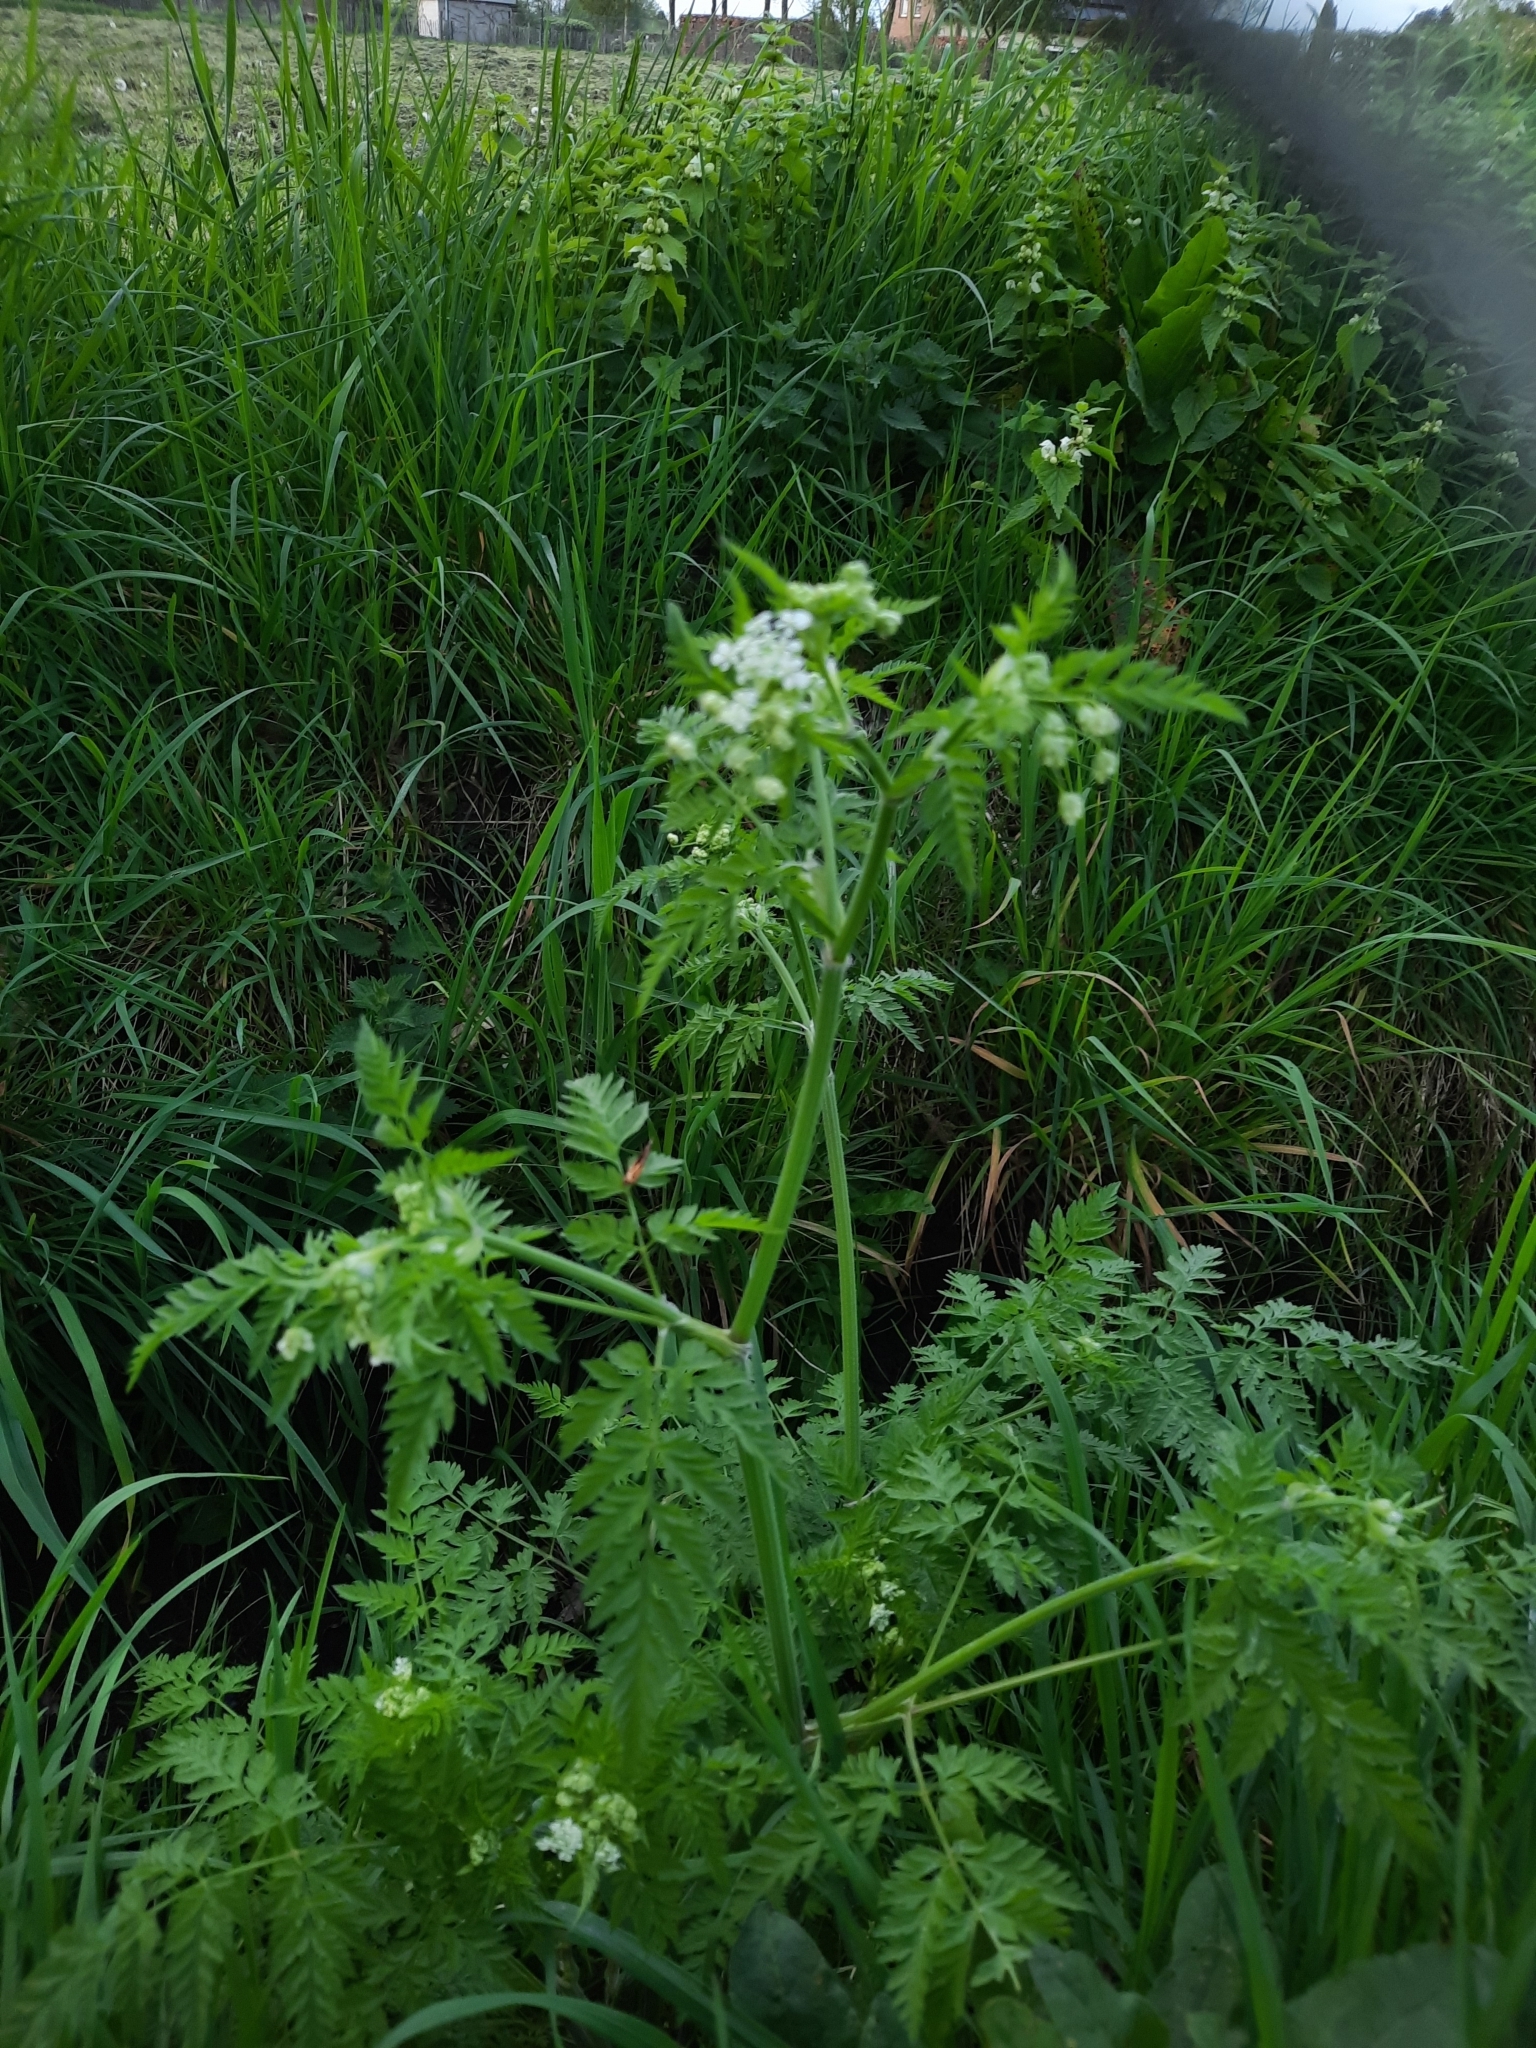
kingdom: Plantae
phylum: Tracheophyta
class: Magnoliopsida
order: Apiales
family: Apiaceae
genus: Anthriscus
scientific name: Anthriscus sylvestris
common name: Cow parsley
